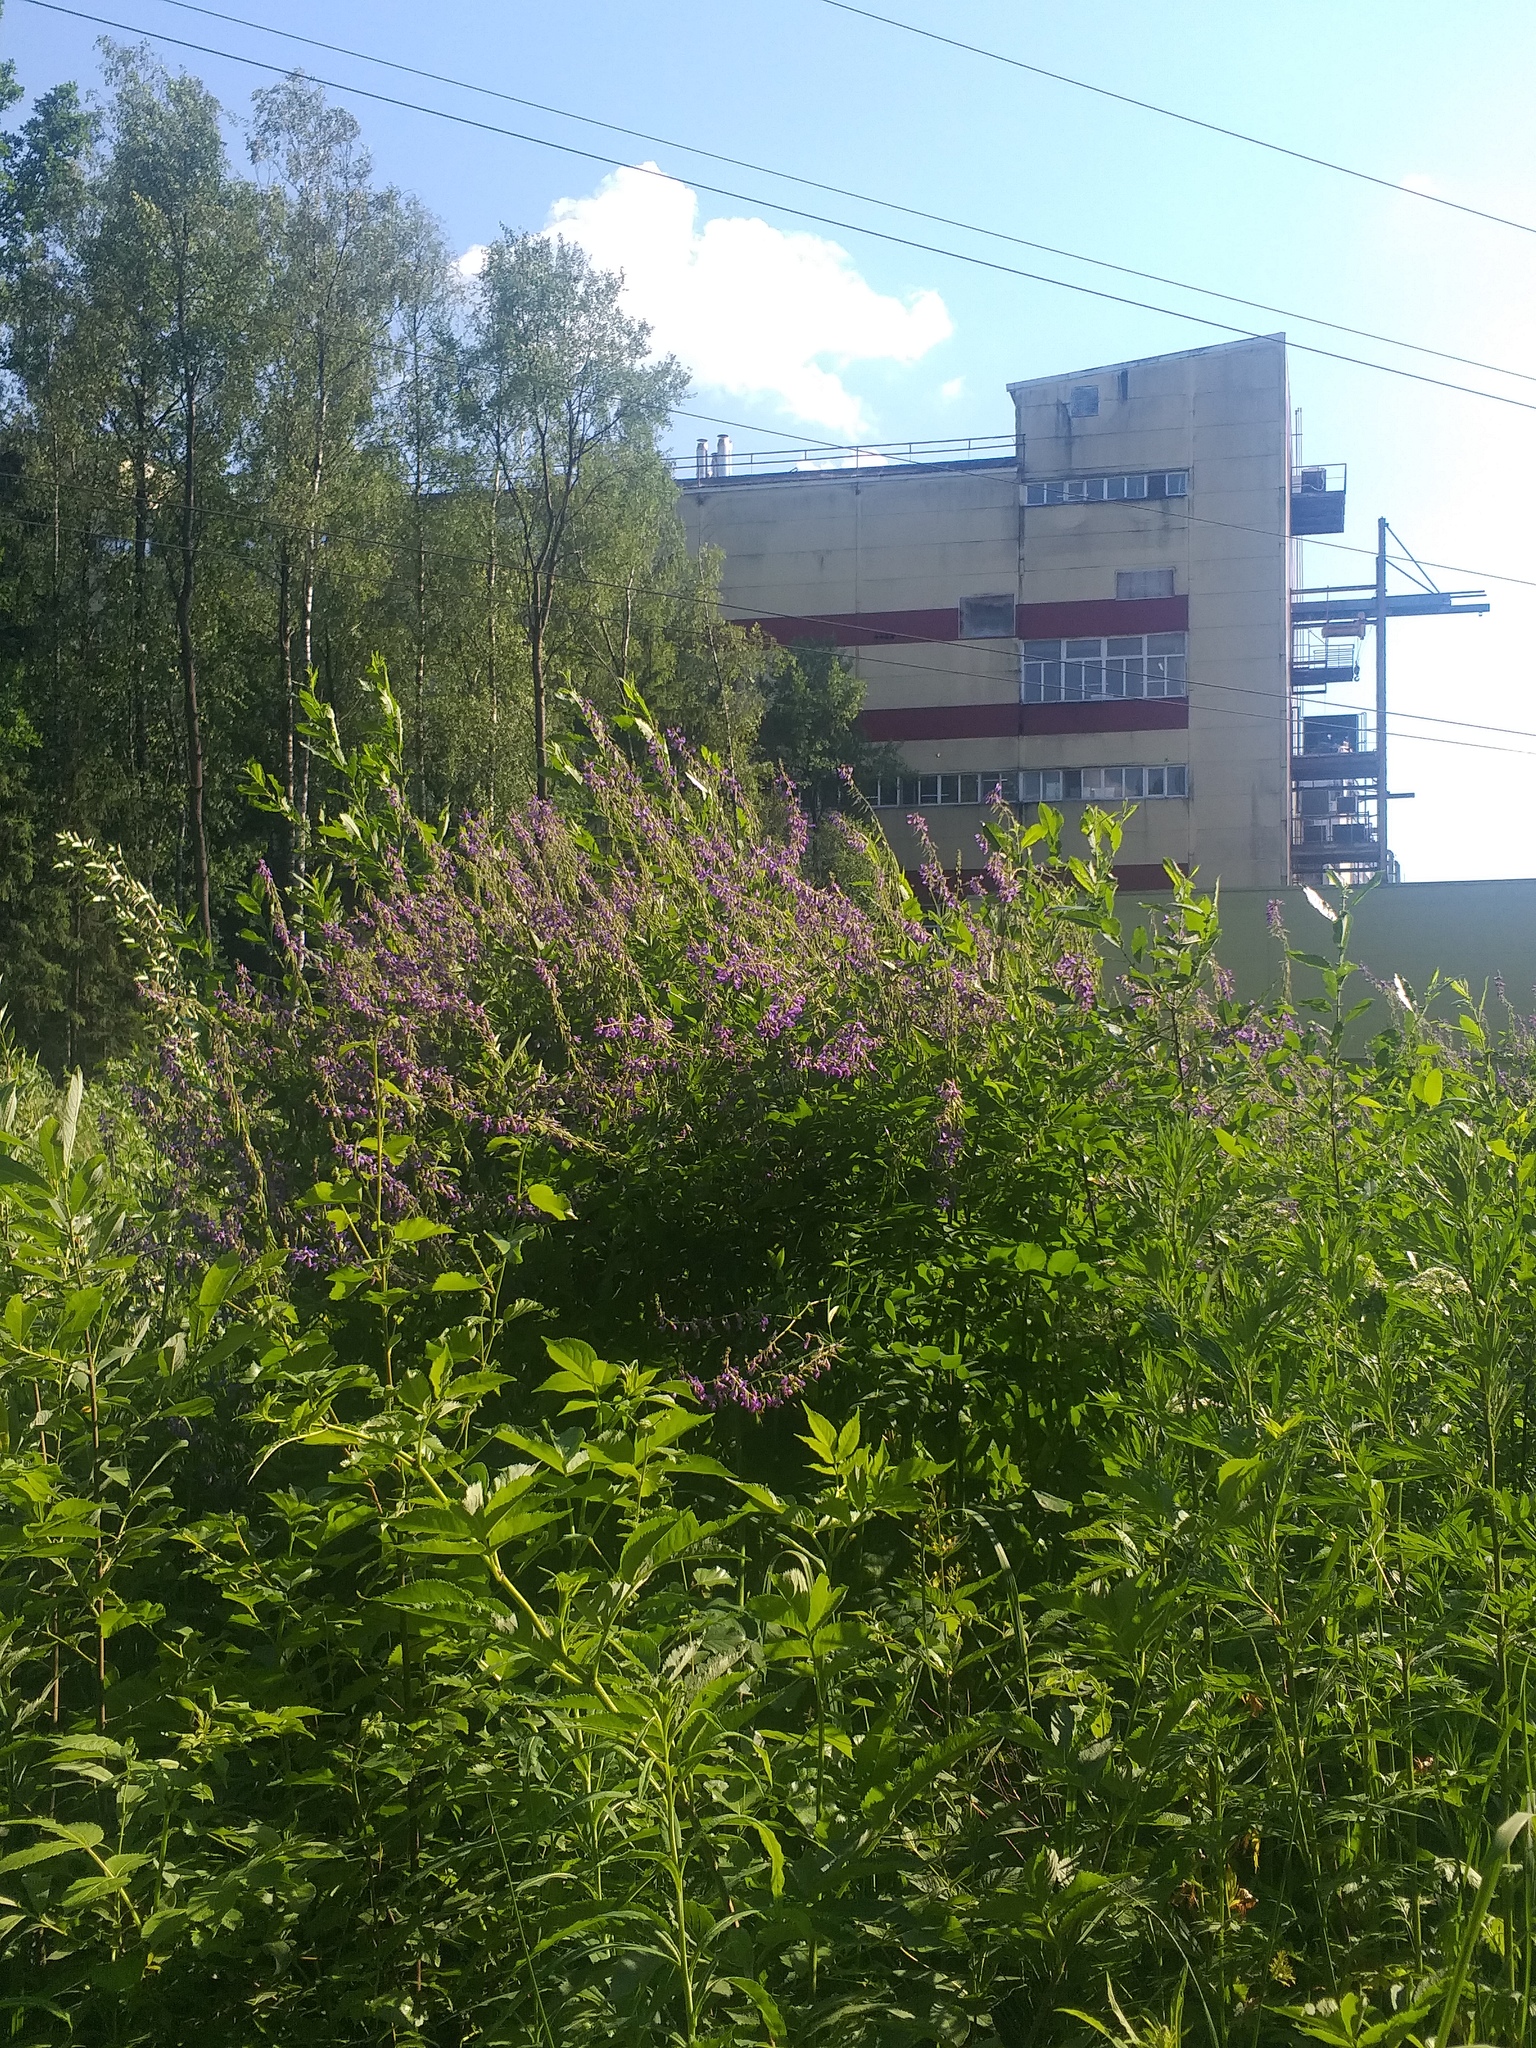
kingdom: Plantae
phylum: Tracheophyta
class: Magnoliopsida
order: Fabales
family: Fabaceae
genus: Galega
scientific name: Galega orientalis
